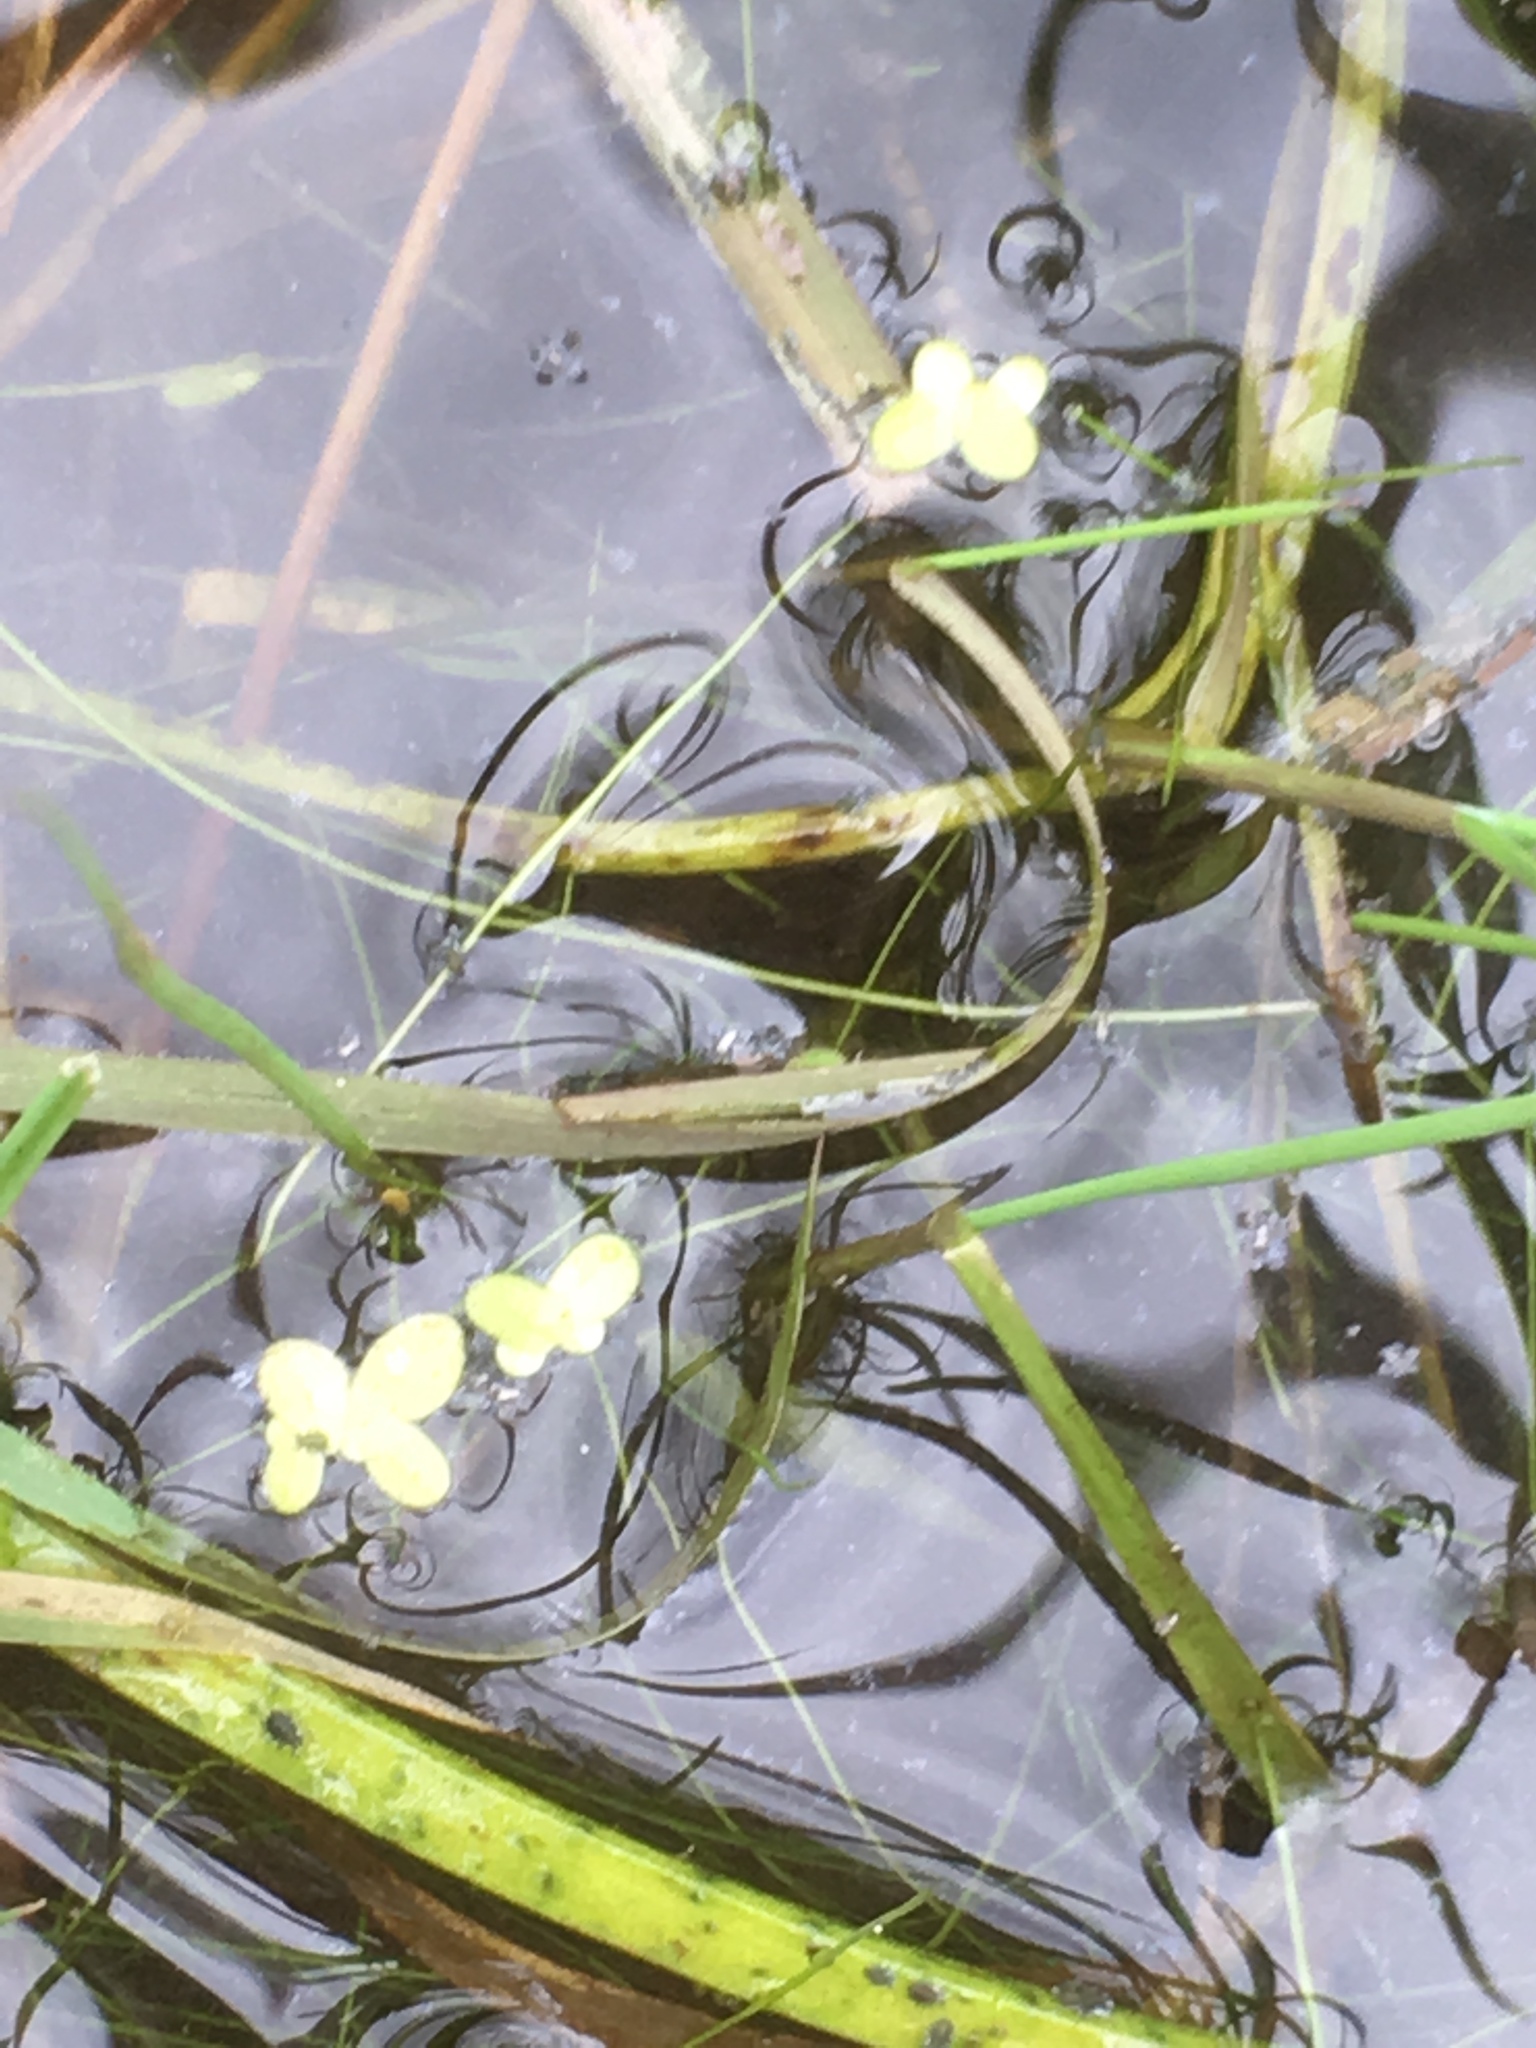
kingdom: Plantae
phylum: Tracheophyta
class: Liliopsida
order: Alismatales
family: Araceae
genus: Lemna
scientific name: Lemna minor
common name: Common duckweed
